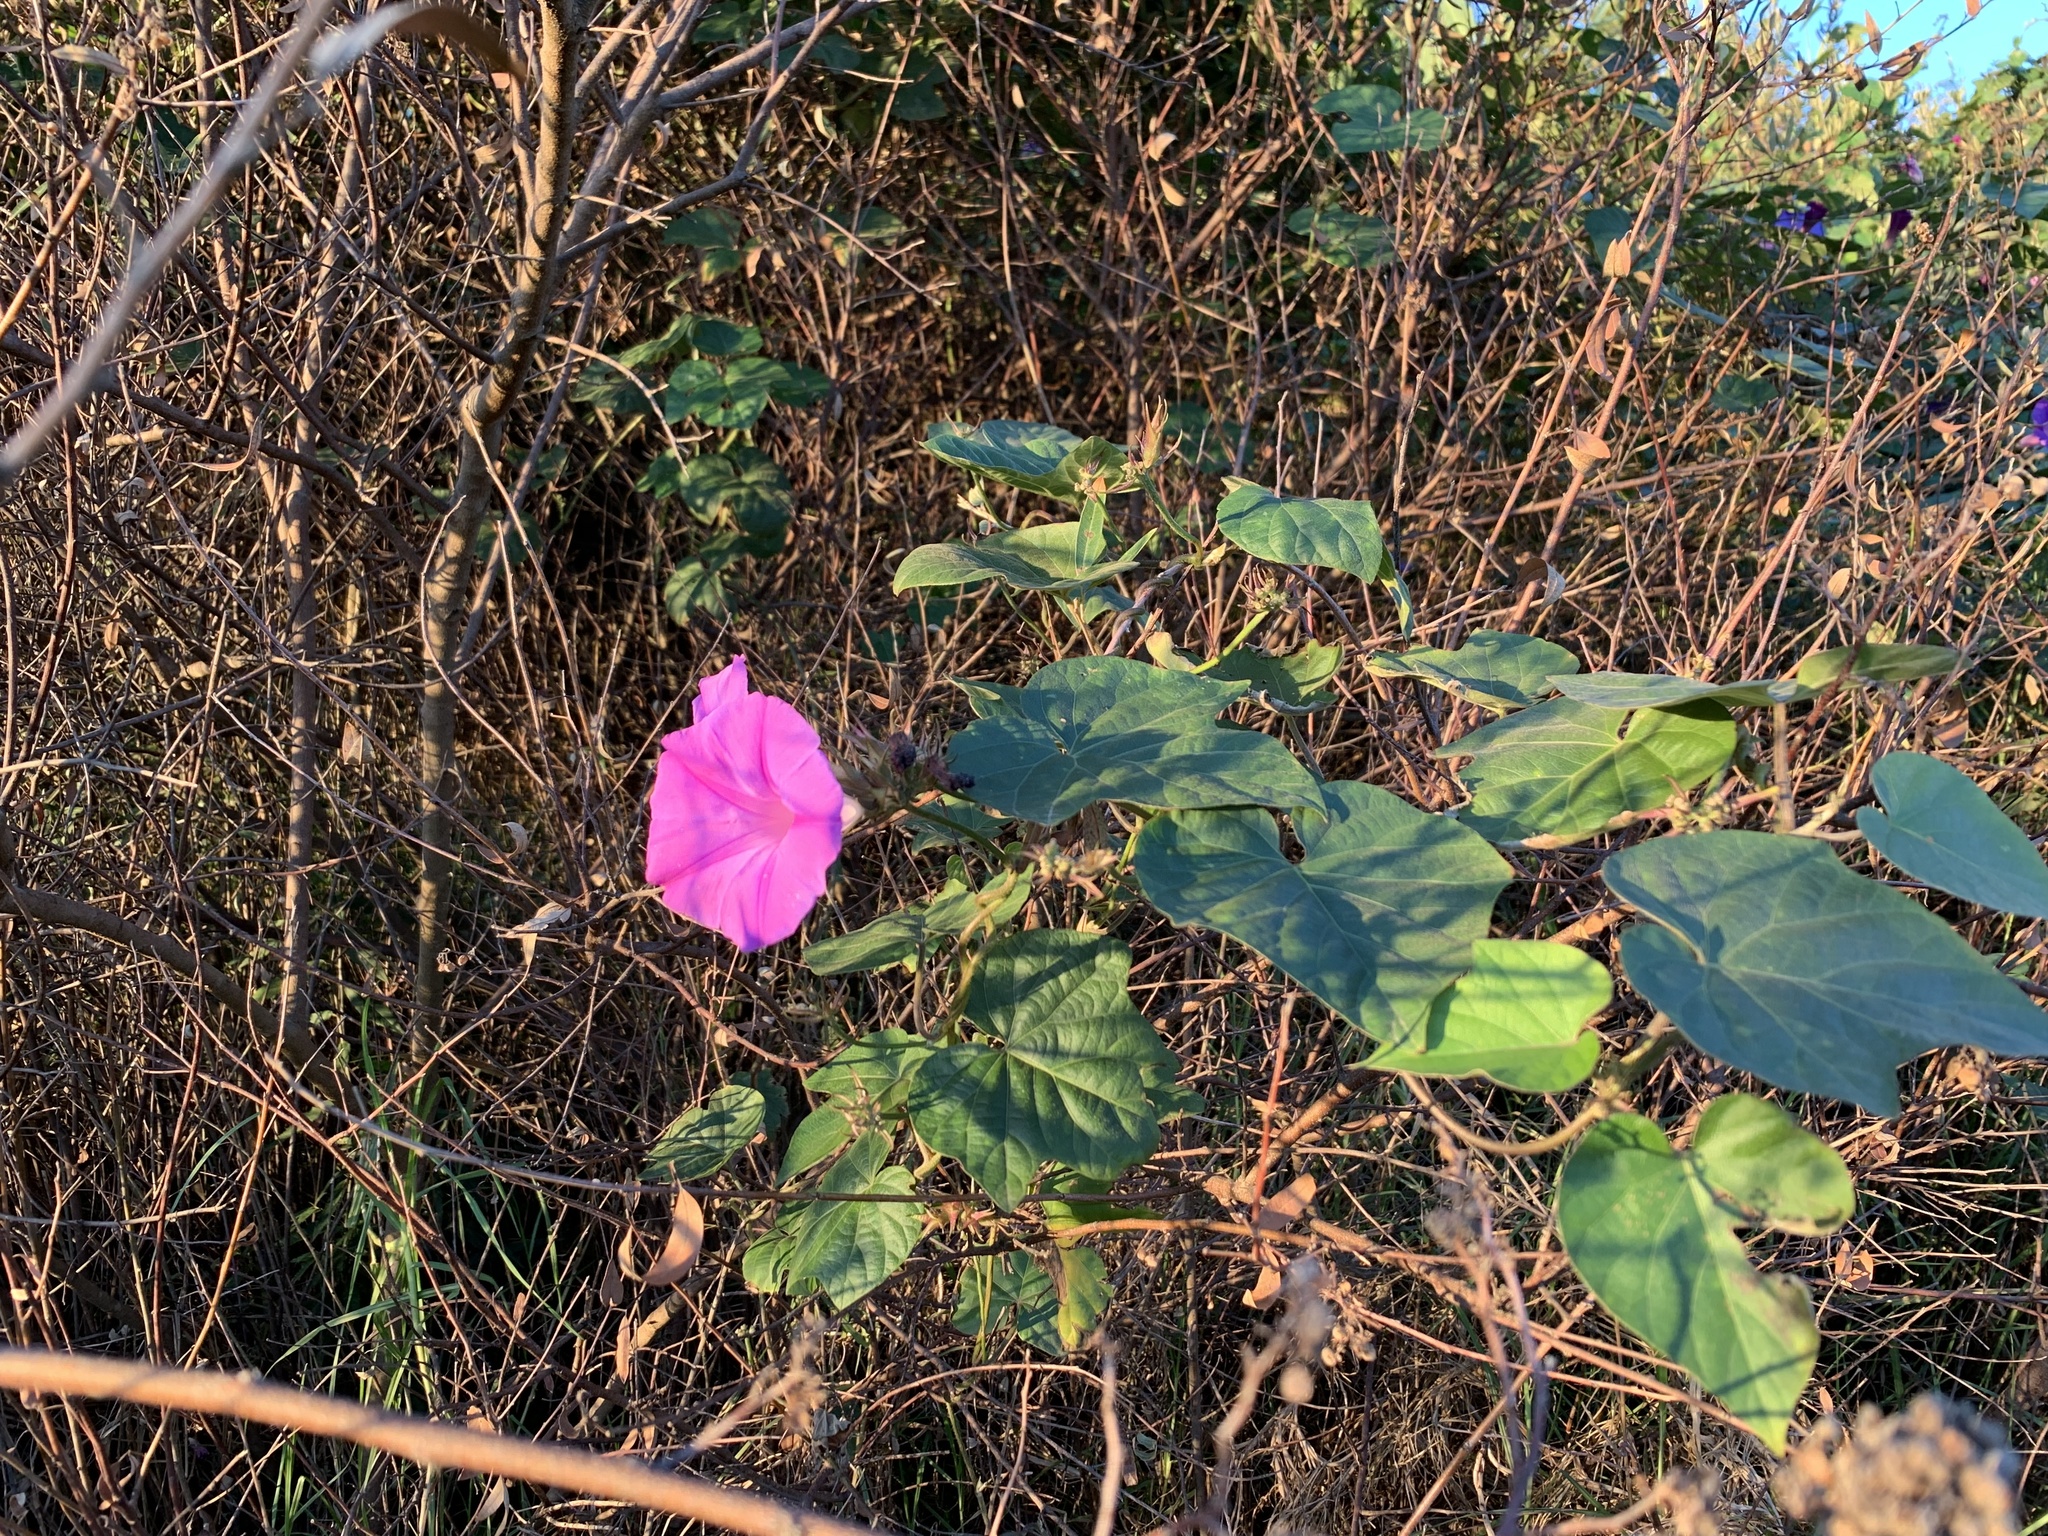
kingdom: Plantae
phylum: Tracheophyta
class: Magnoliopsida
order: Solanales
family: Convolvulaceae
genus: Ipomoea
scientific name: Ipomoea indica
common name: Blue dawnflower
